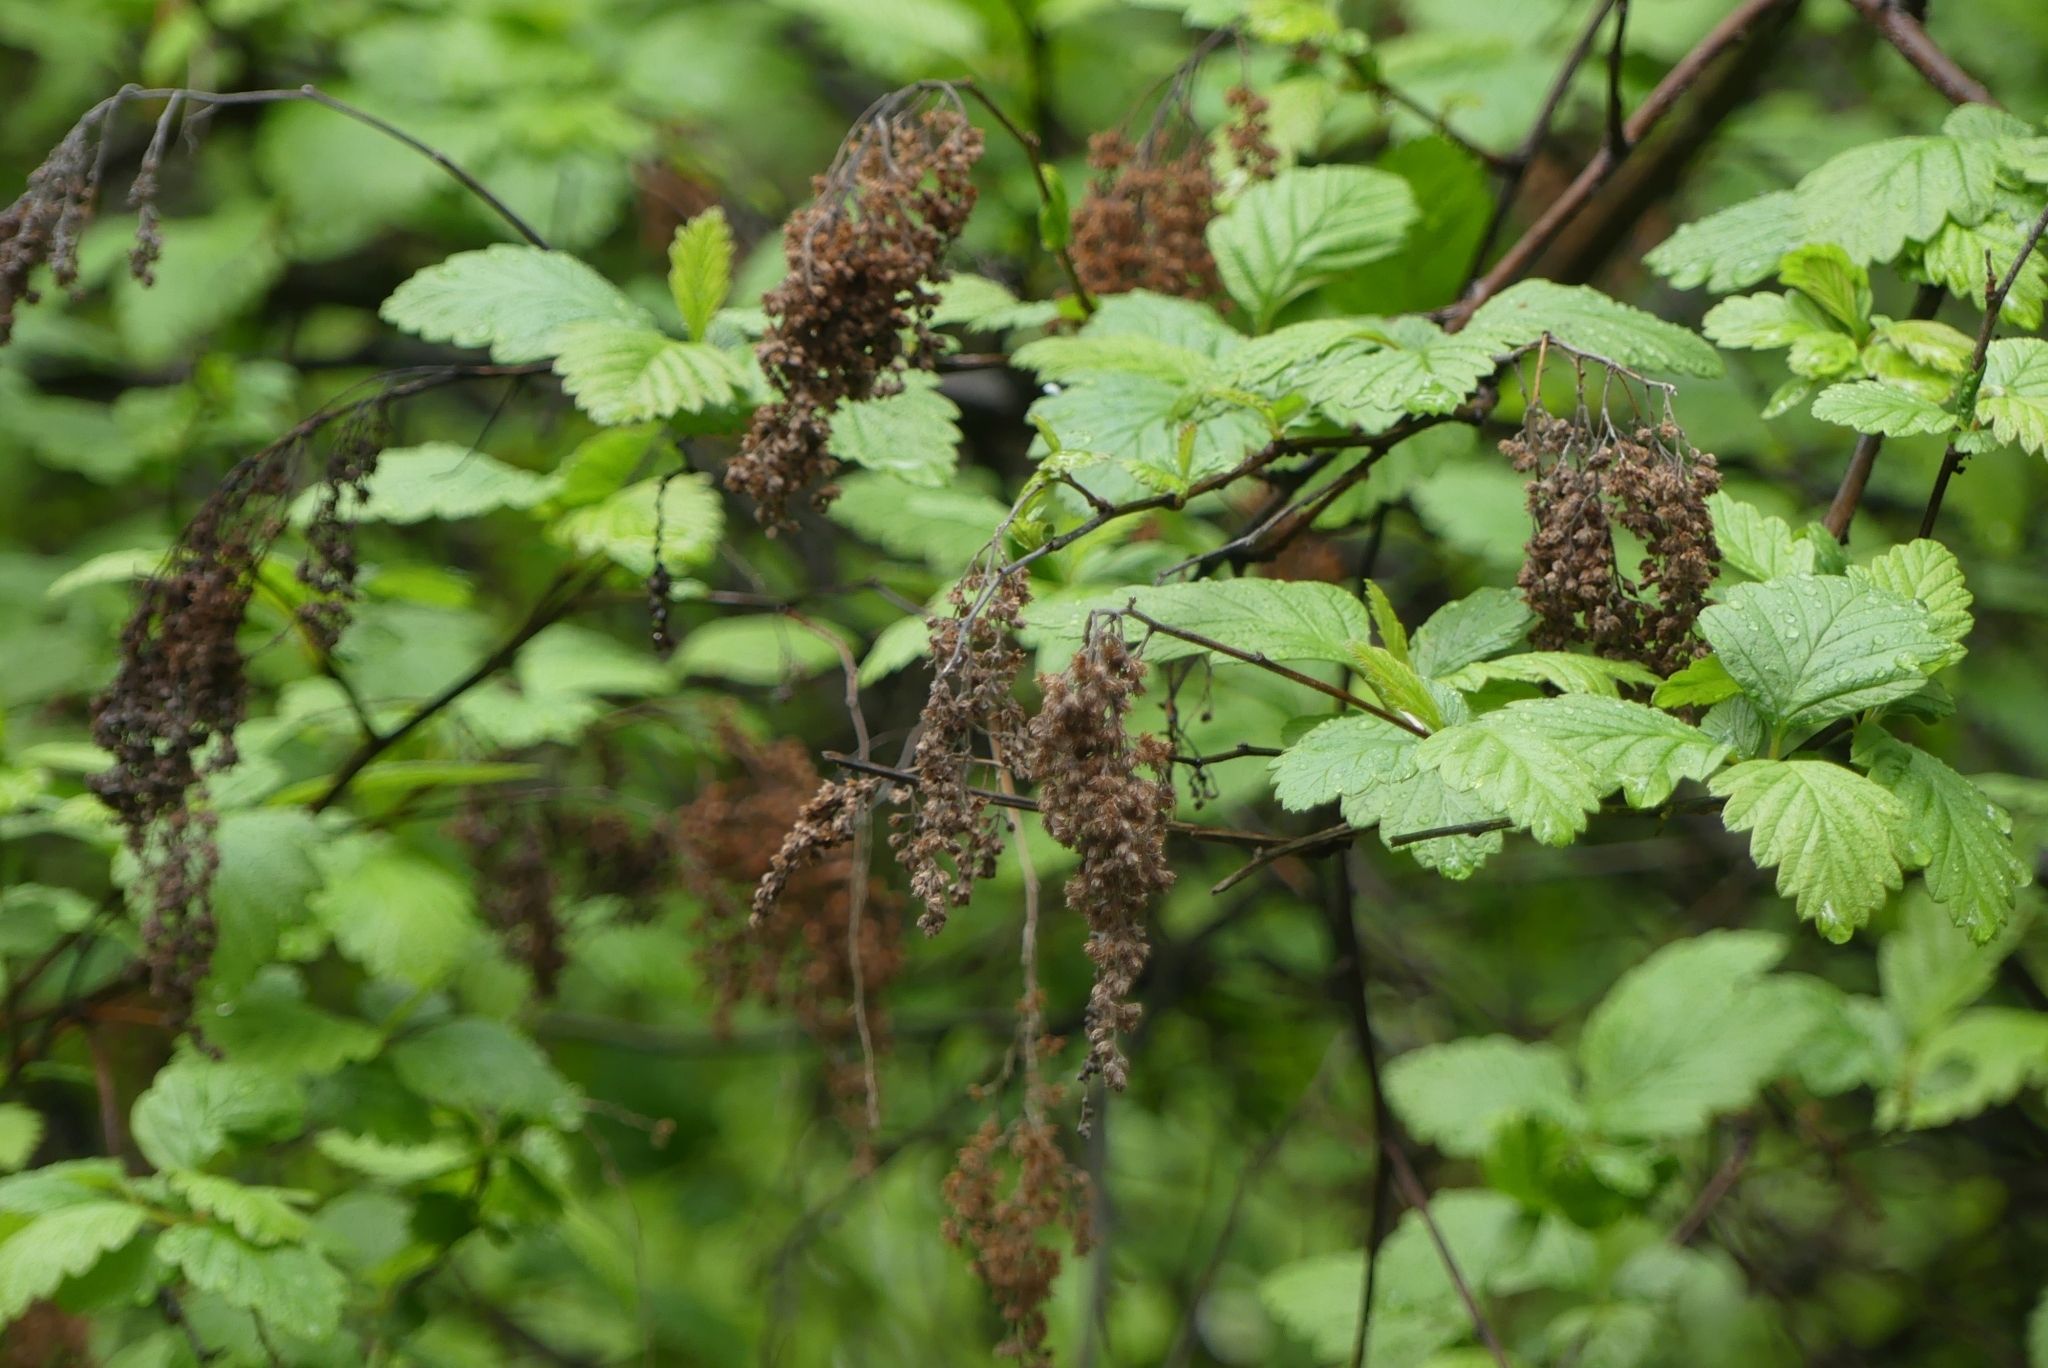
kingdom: Plantae
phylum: Tracheophyta
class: Magnoliopsida
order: Rosales
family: Rosaceae
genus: Holodiscus
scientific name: Holodiscus discolor
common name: Oceanspray
